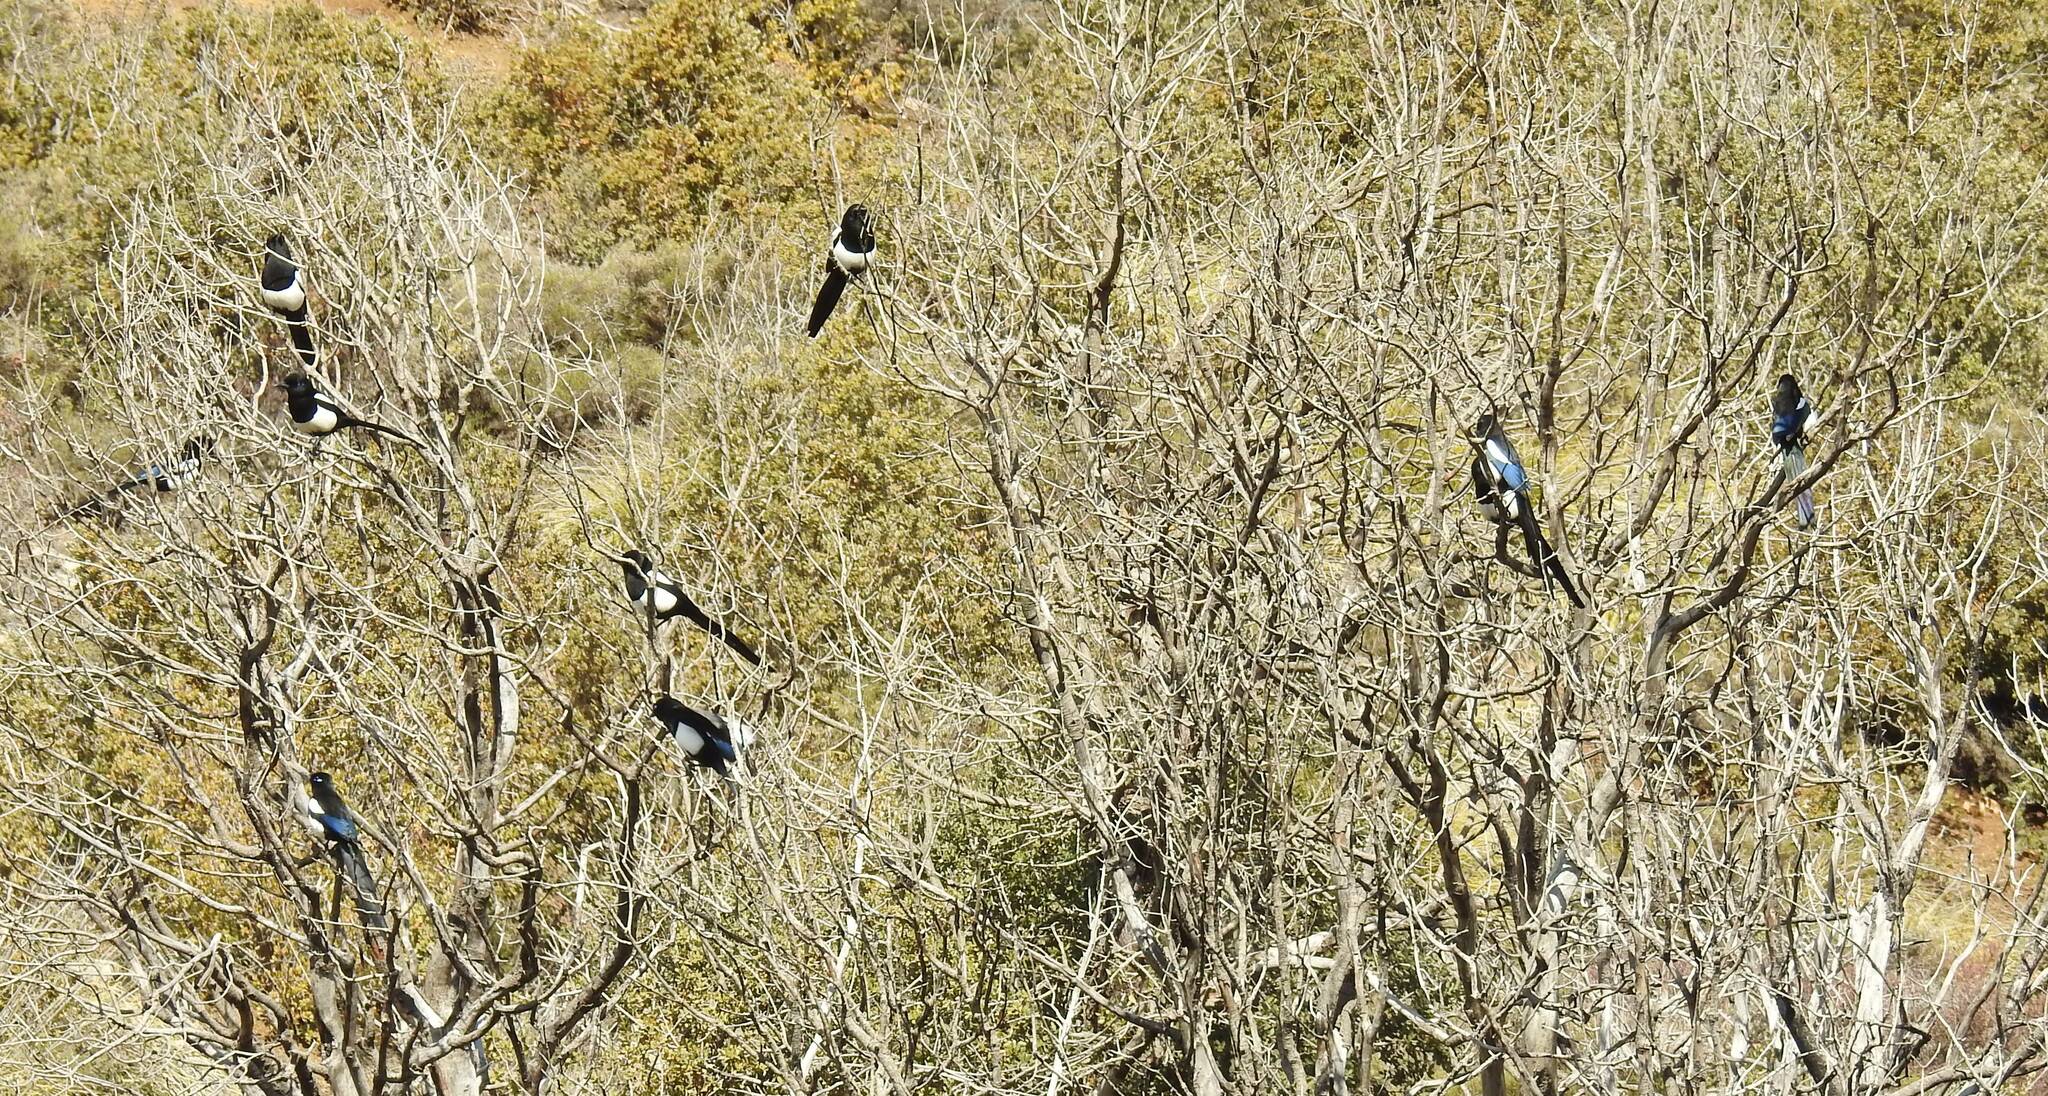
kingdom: Animalia
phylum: Chordata
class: Aves
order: Passeriformes
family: Corvidae
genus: Pica
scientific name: Pica mauritanica
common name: Maghreb magpie
